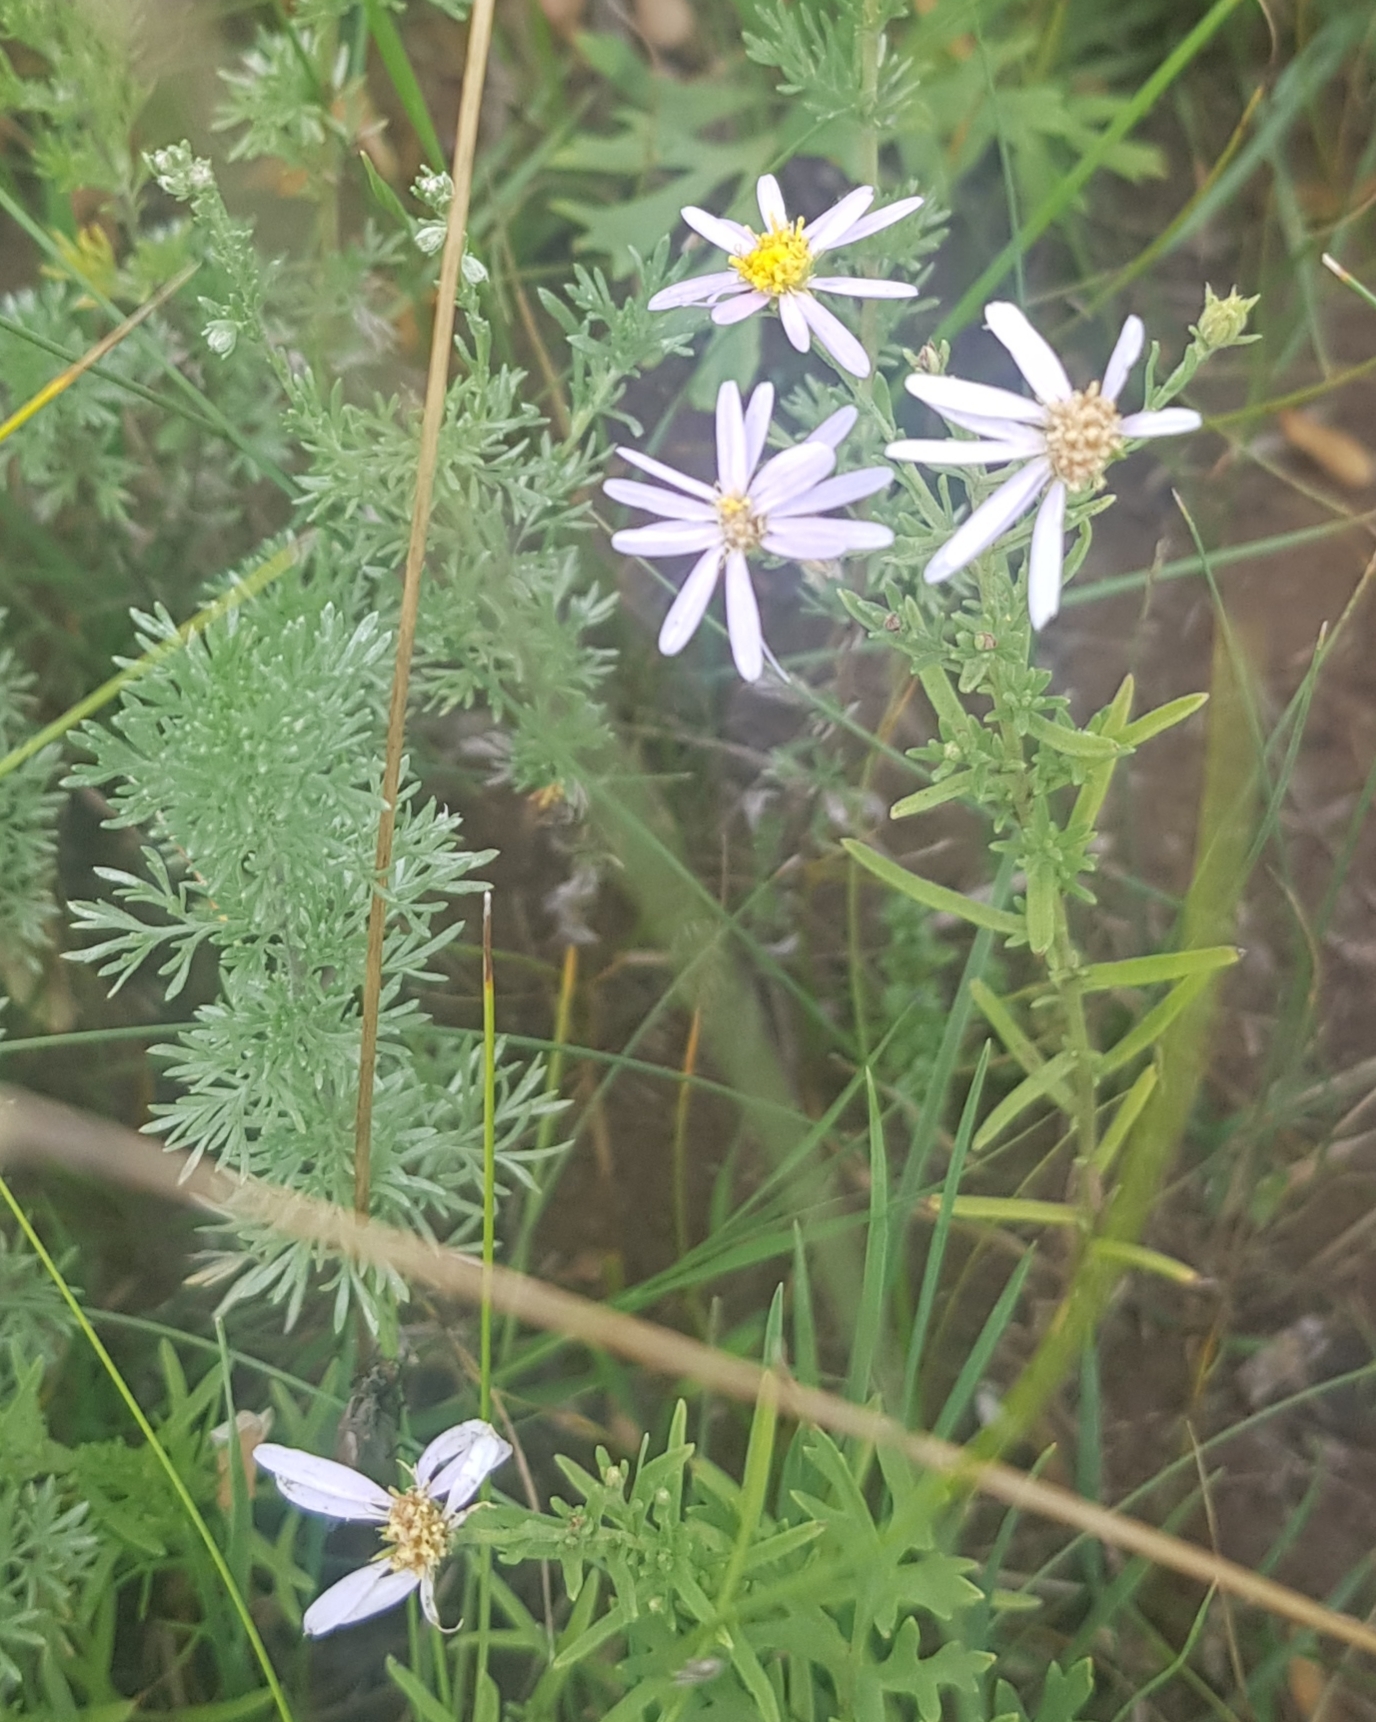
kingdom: Plantae
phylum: Tracheophyta
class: Magnoliopsida
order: Asterales
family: Asteraceae
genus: Heteropappus
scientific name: Heteropappus altaicus
